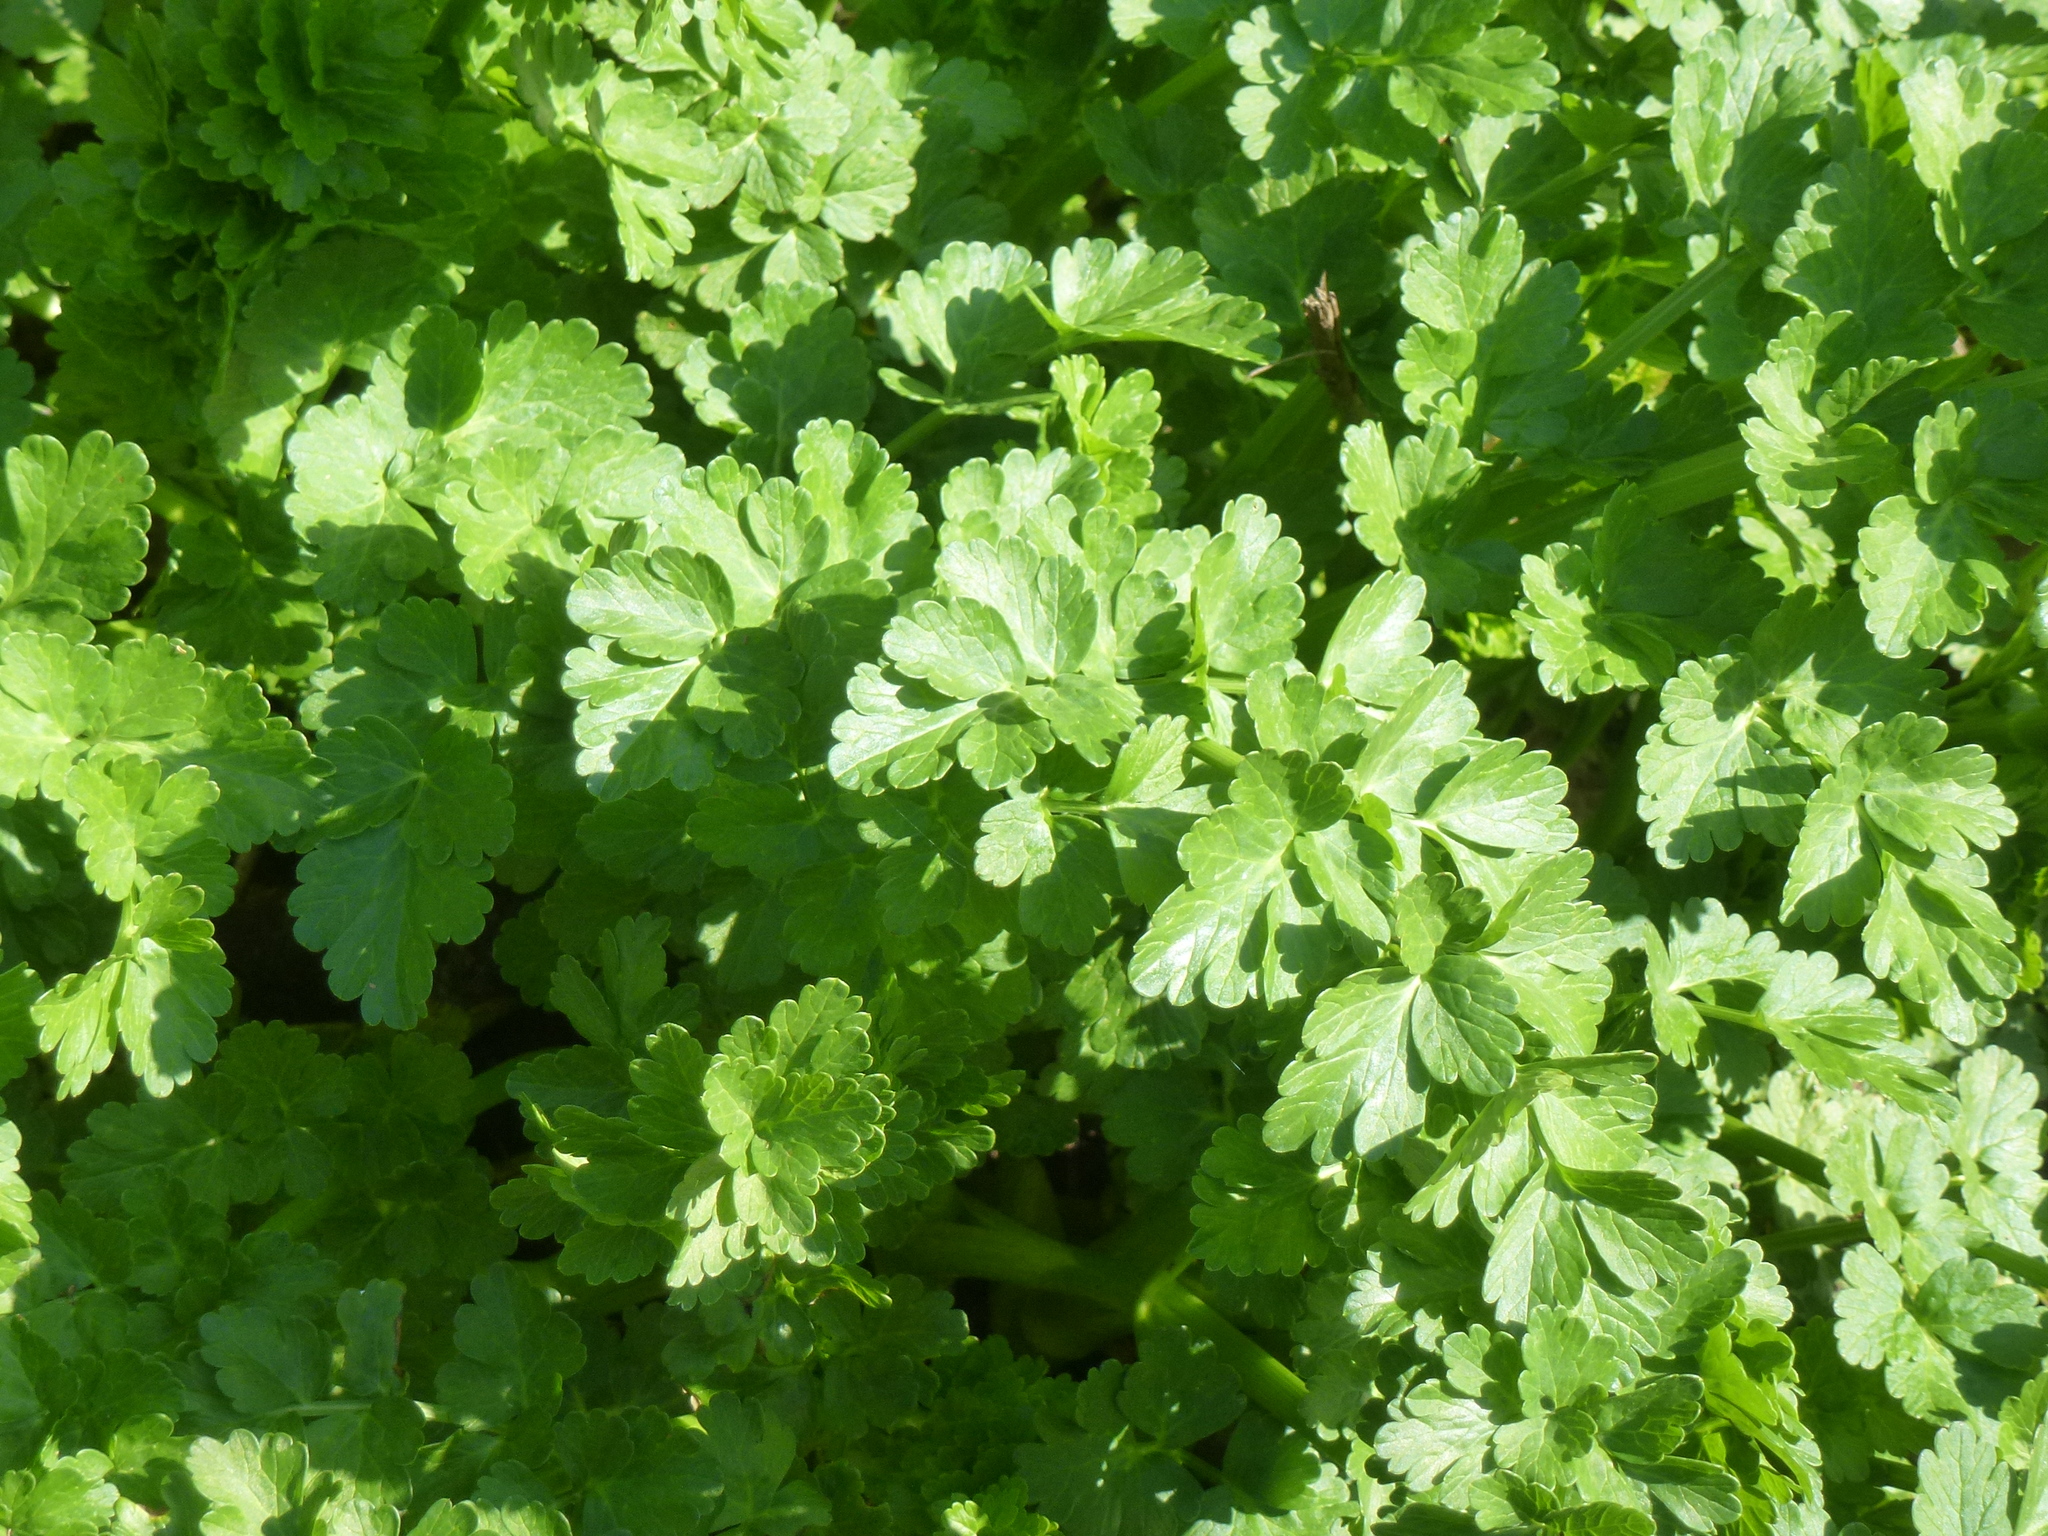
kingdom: Plantae
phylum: Tracheophyta
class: Magnoliopsida
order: Apiales
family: Apiaceae
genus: Oenanthe
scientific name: Oenanthe crocata
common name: Hemlock water-dropwort
